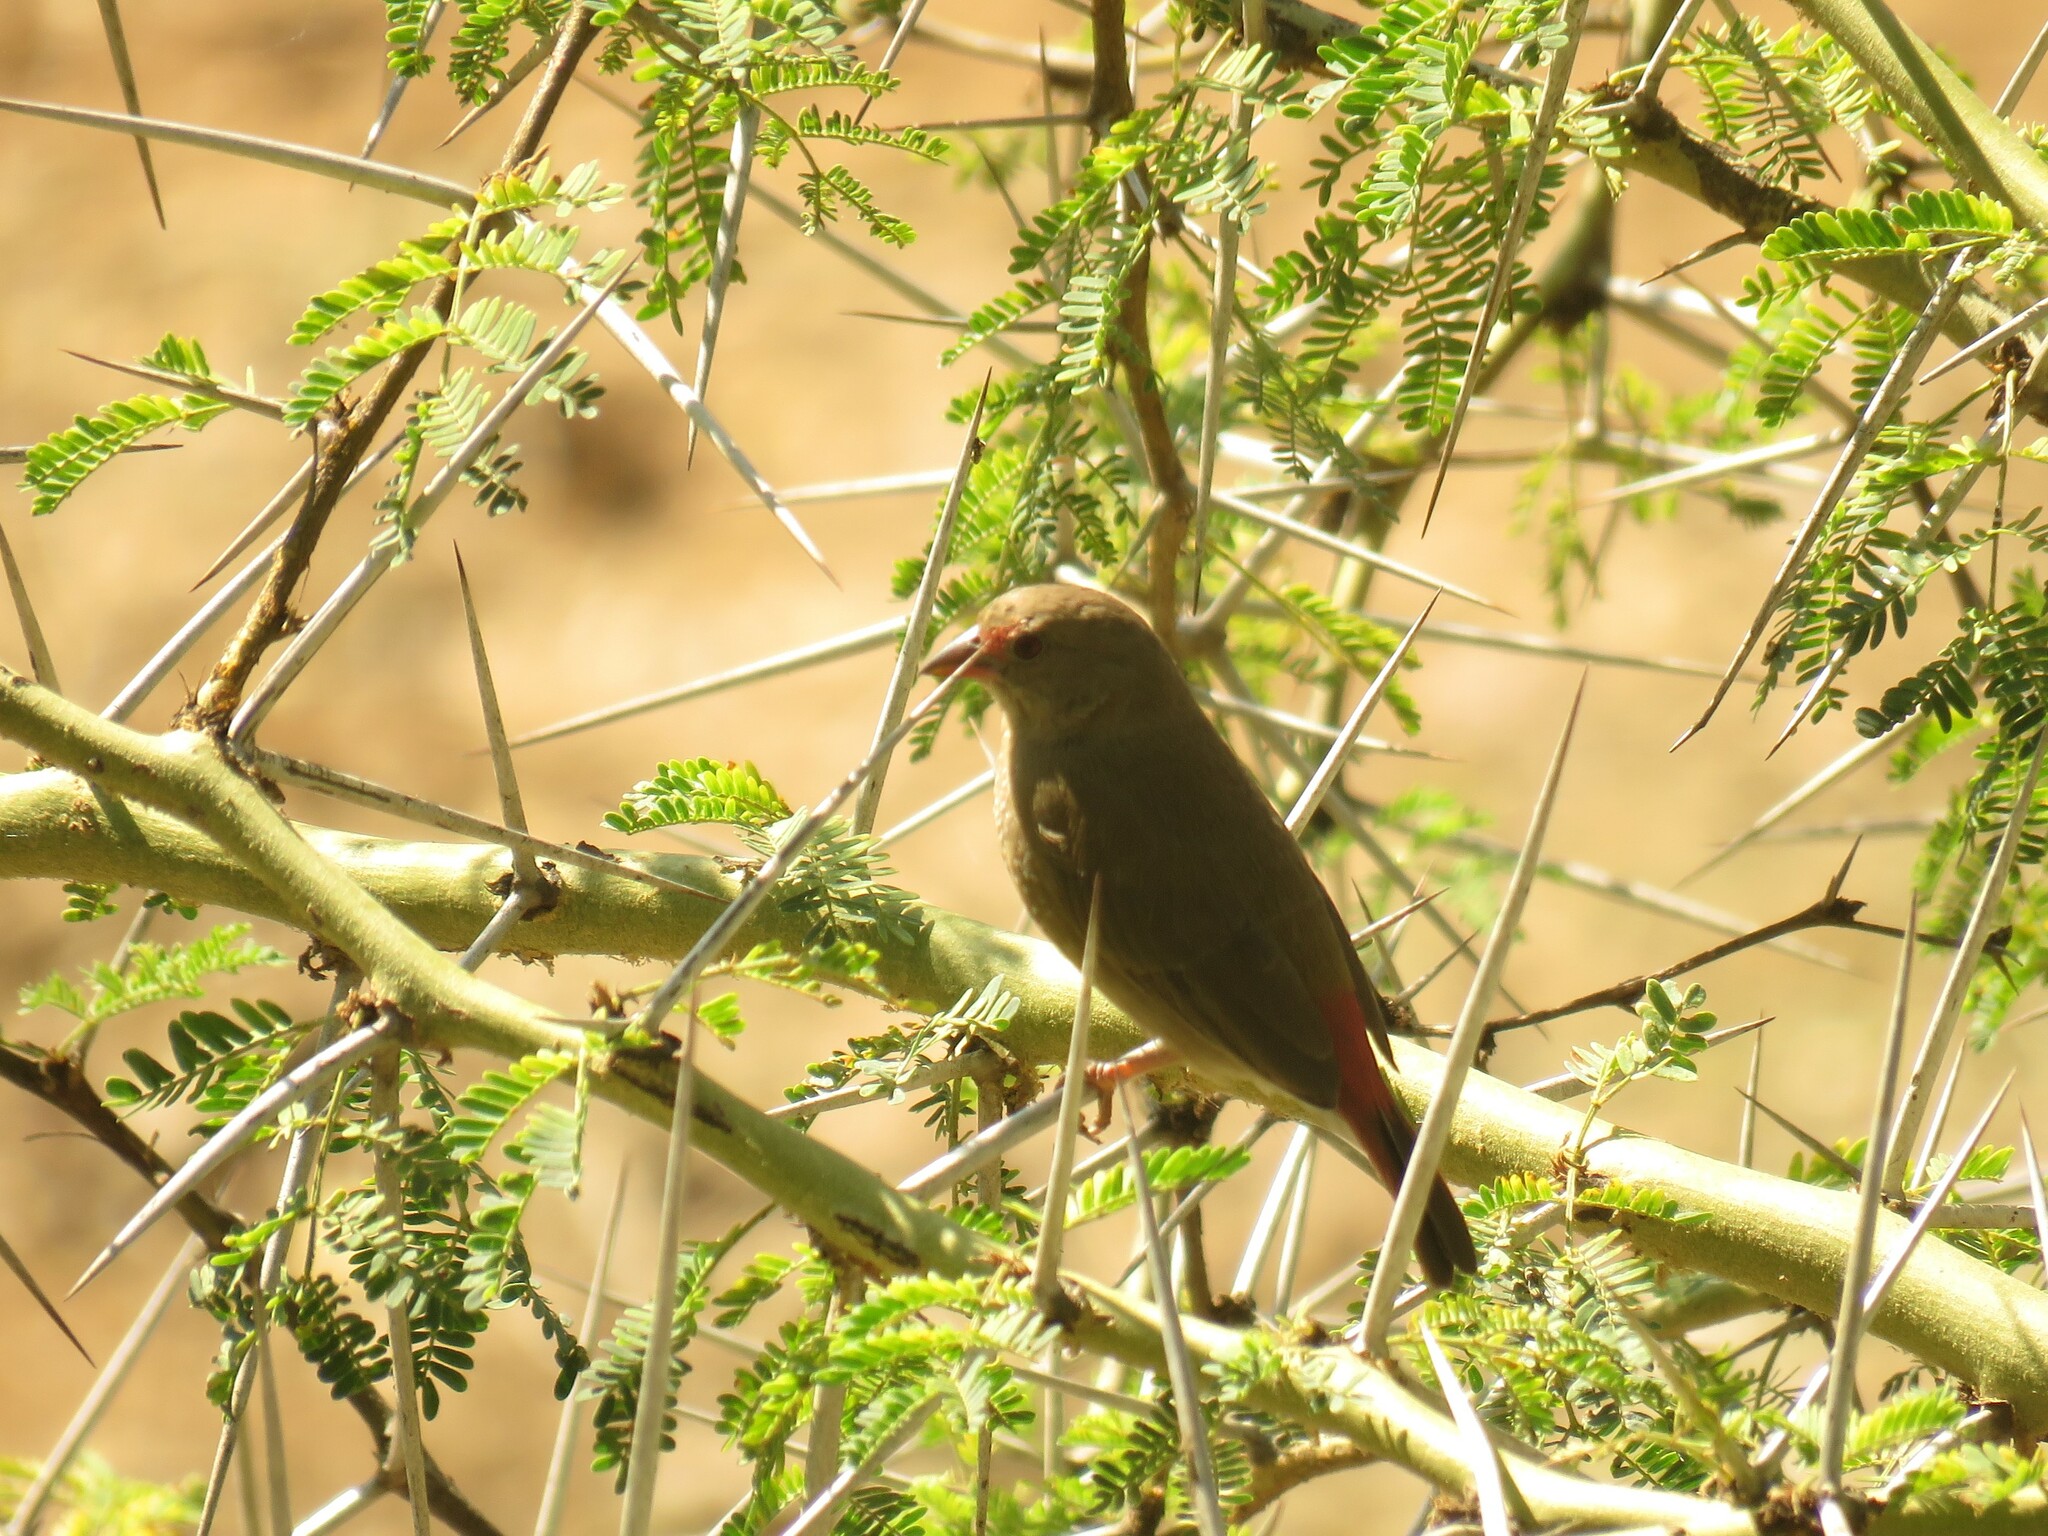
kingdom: Animalia
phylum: Chordata
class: Aves
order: Passeriformes
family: Estrildidae
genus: Lagonosticta
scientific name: Lagonosticta senegala
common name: Red-billed firefinch
